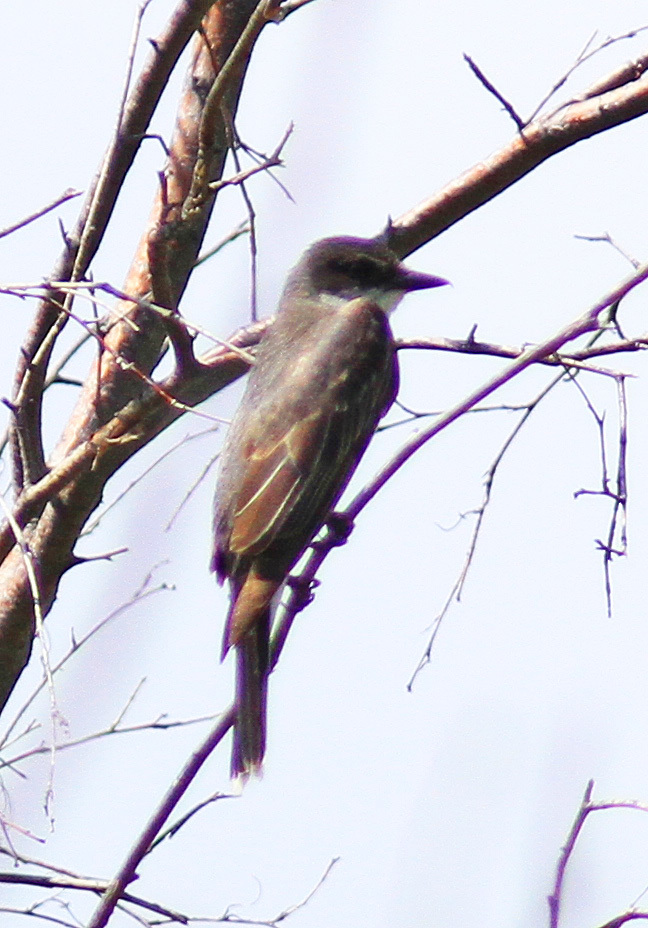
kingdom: Animalia
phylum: Chordata
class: Aves
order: Passeriformes
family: Tyrannidae
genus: Tyrannus
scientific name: Tyrannus
